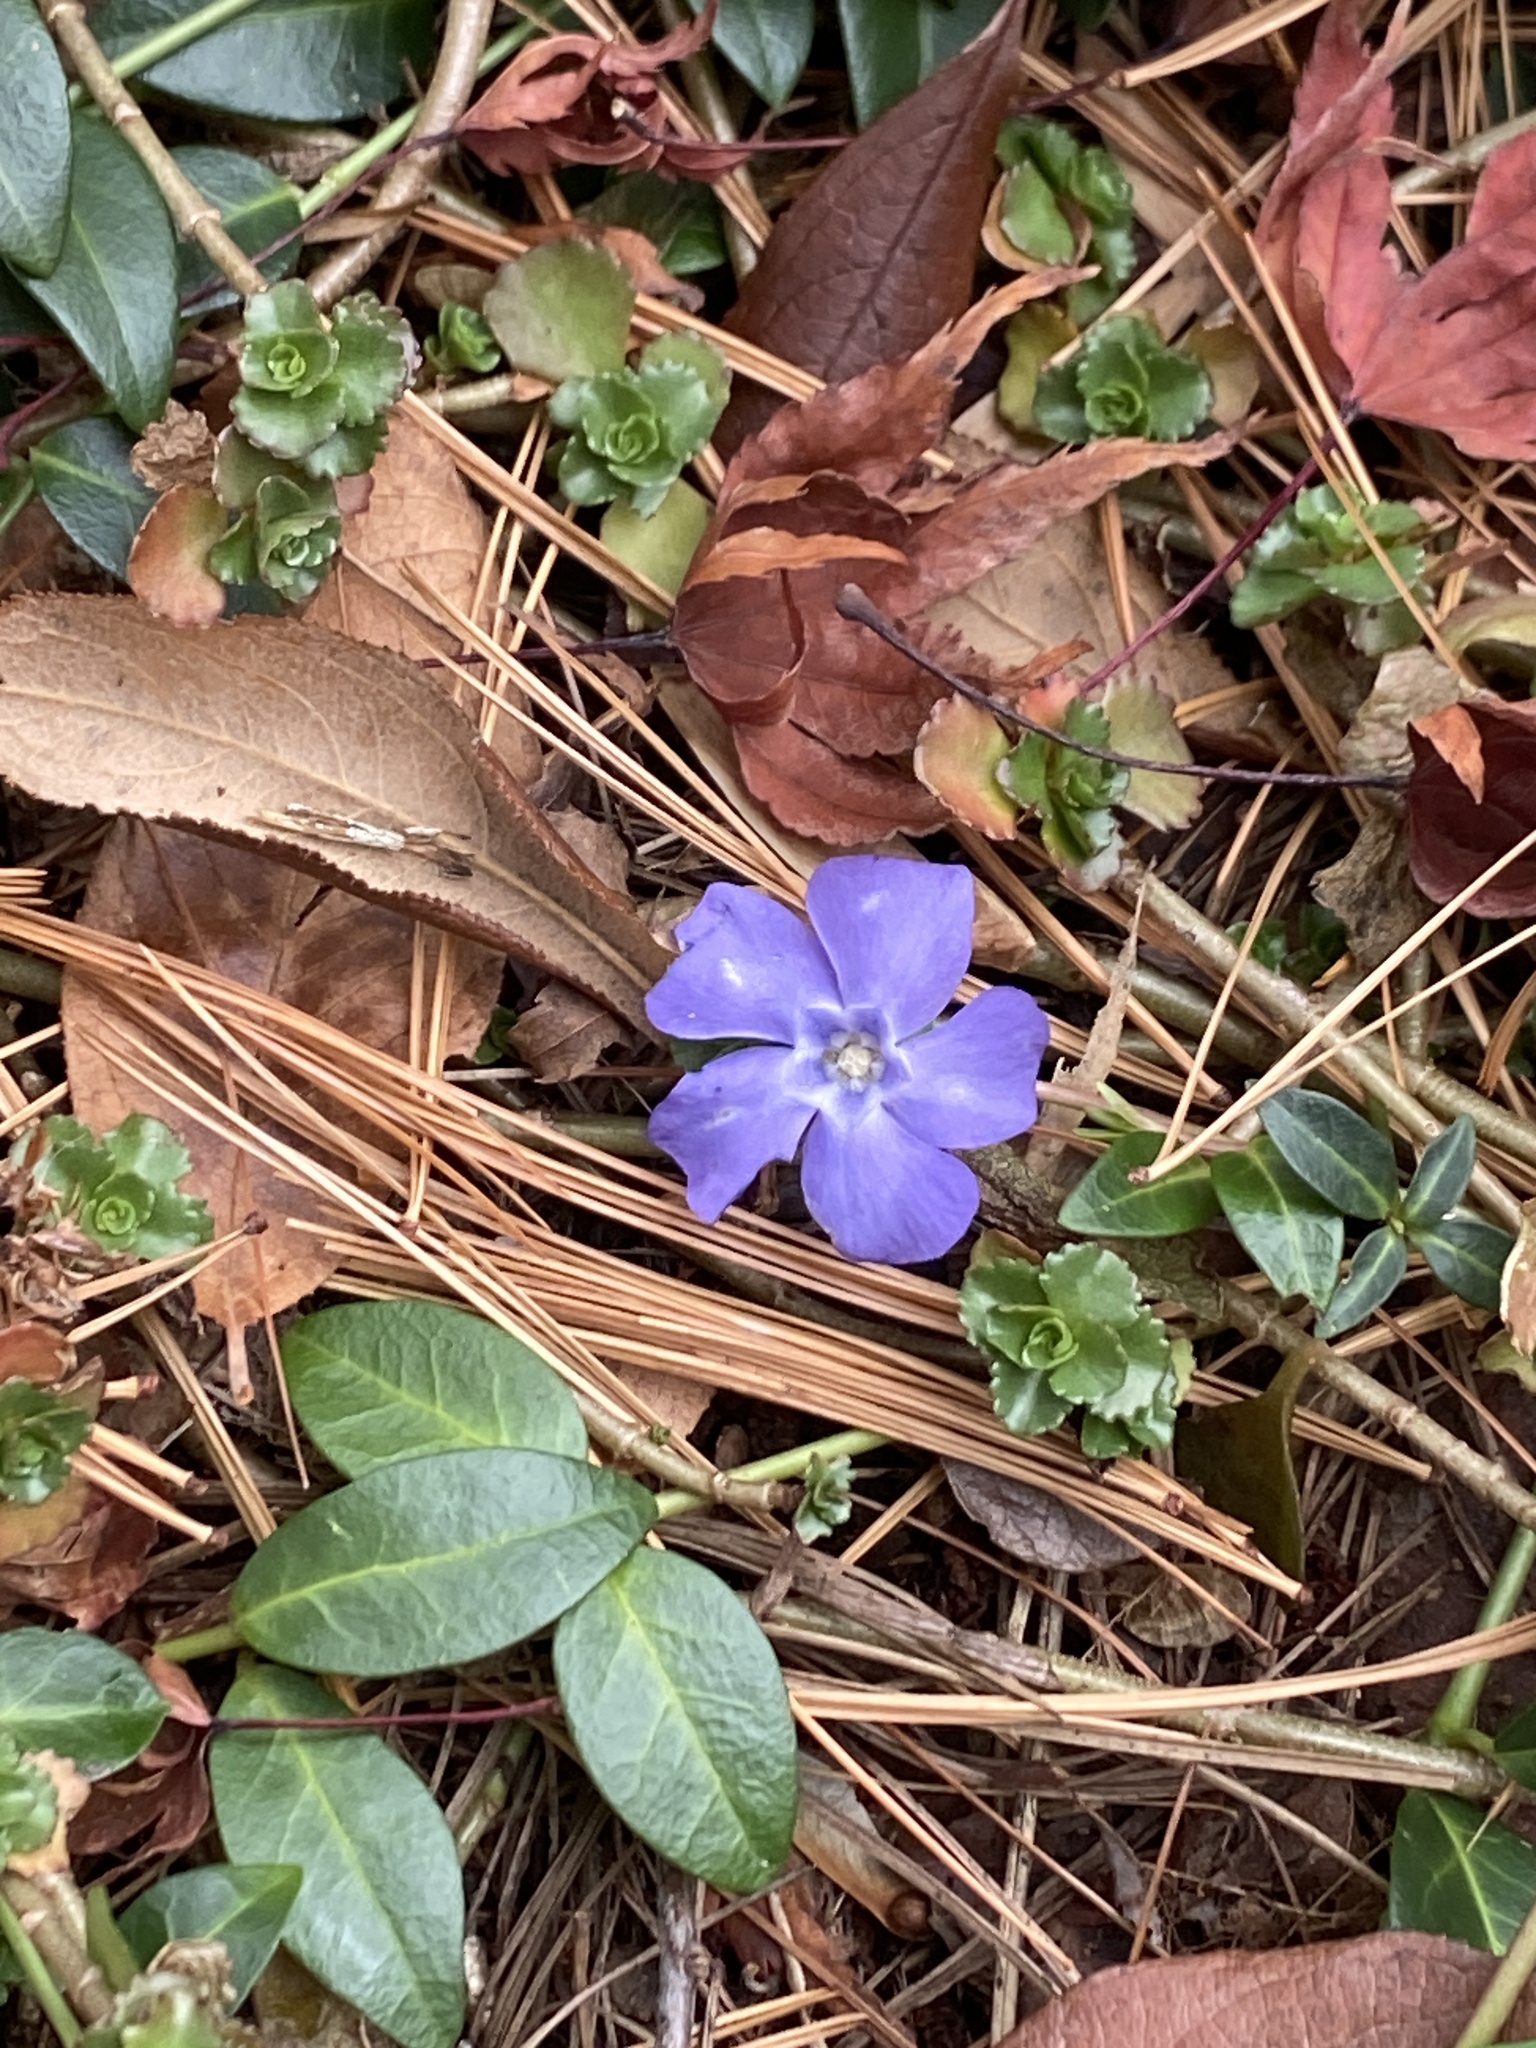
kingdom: Plantae
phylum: Tracheophyta
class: Magnoliopsida
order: Gentianales
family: Apocynaceae
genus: Vinca
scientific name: Vinca minor
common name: Lesser periwinkle
